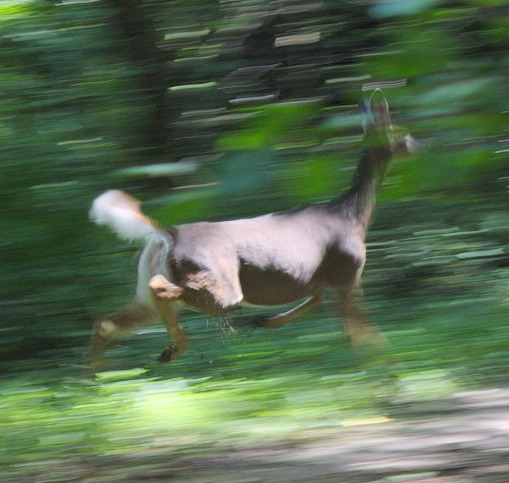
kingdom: Animalia
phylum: Chordata
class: Mammalia
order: Artiodactyla
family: Cervidae
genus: Odocoileus
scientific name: Odocoileus virginianus
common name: White-tailed deer
